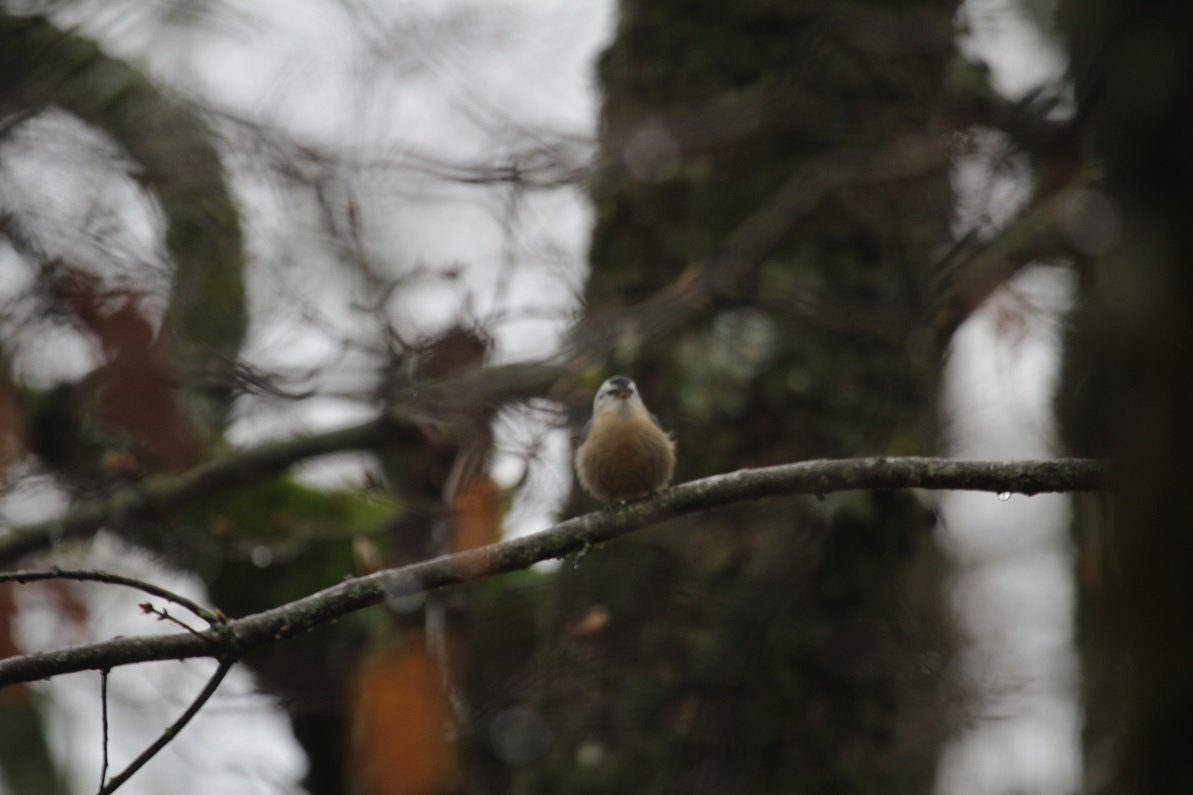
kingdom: Animalia
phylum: Chordata
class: Aves
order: Passeriformes
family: Sittidae
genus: Sitta
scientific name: Sitta ledanti
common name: Algerian nuthatch
